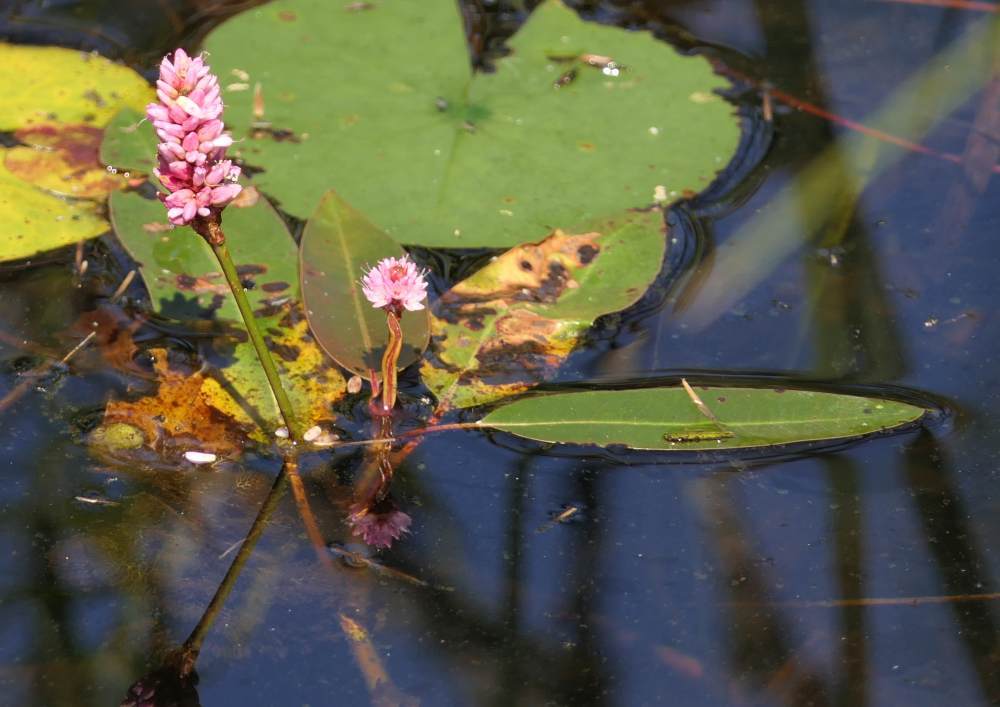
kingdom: Plantae
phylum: Tracheophyta
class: Magnoliopsida
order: Caryophyllales
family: Polygonaceae
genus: Persicaria
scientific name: Persicaria amphibia
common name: Amphibious bistort
